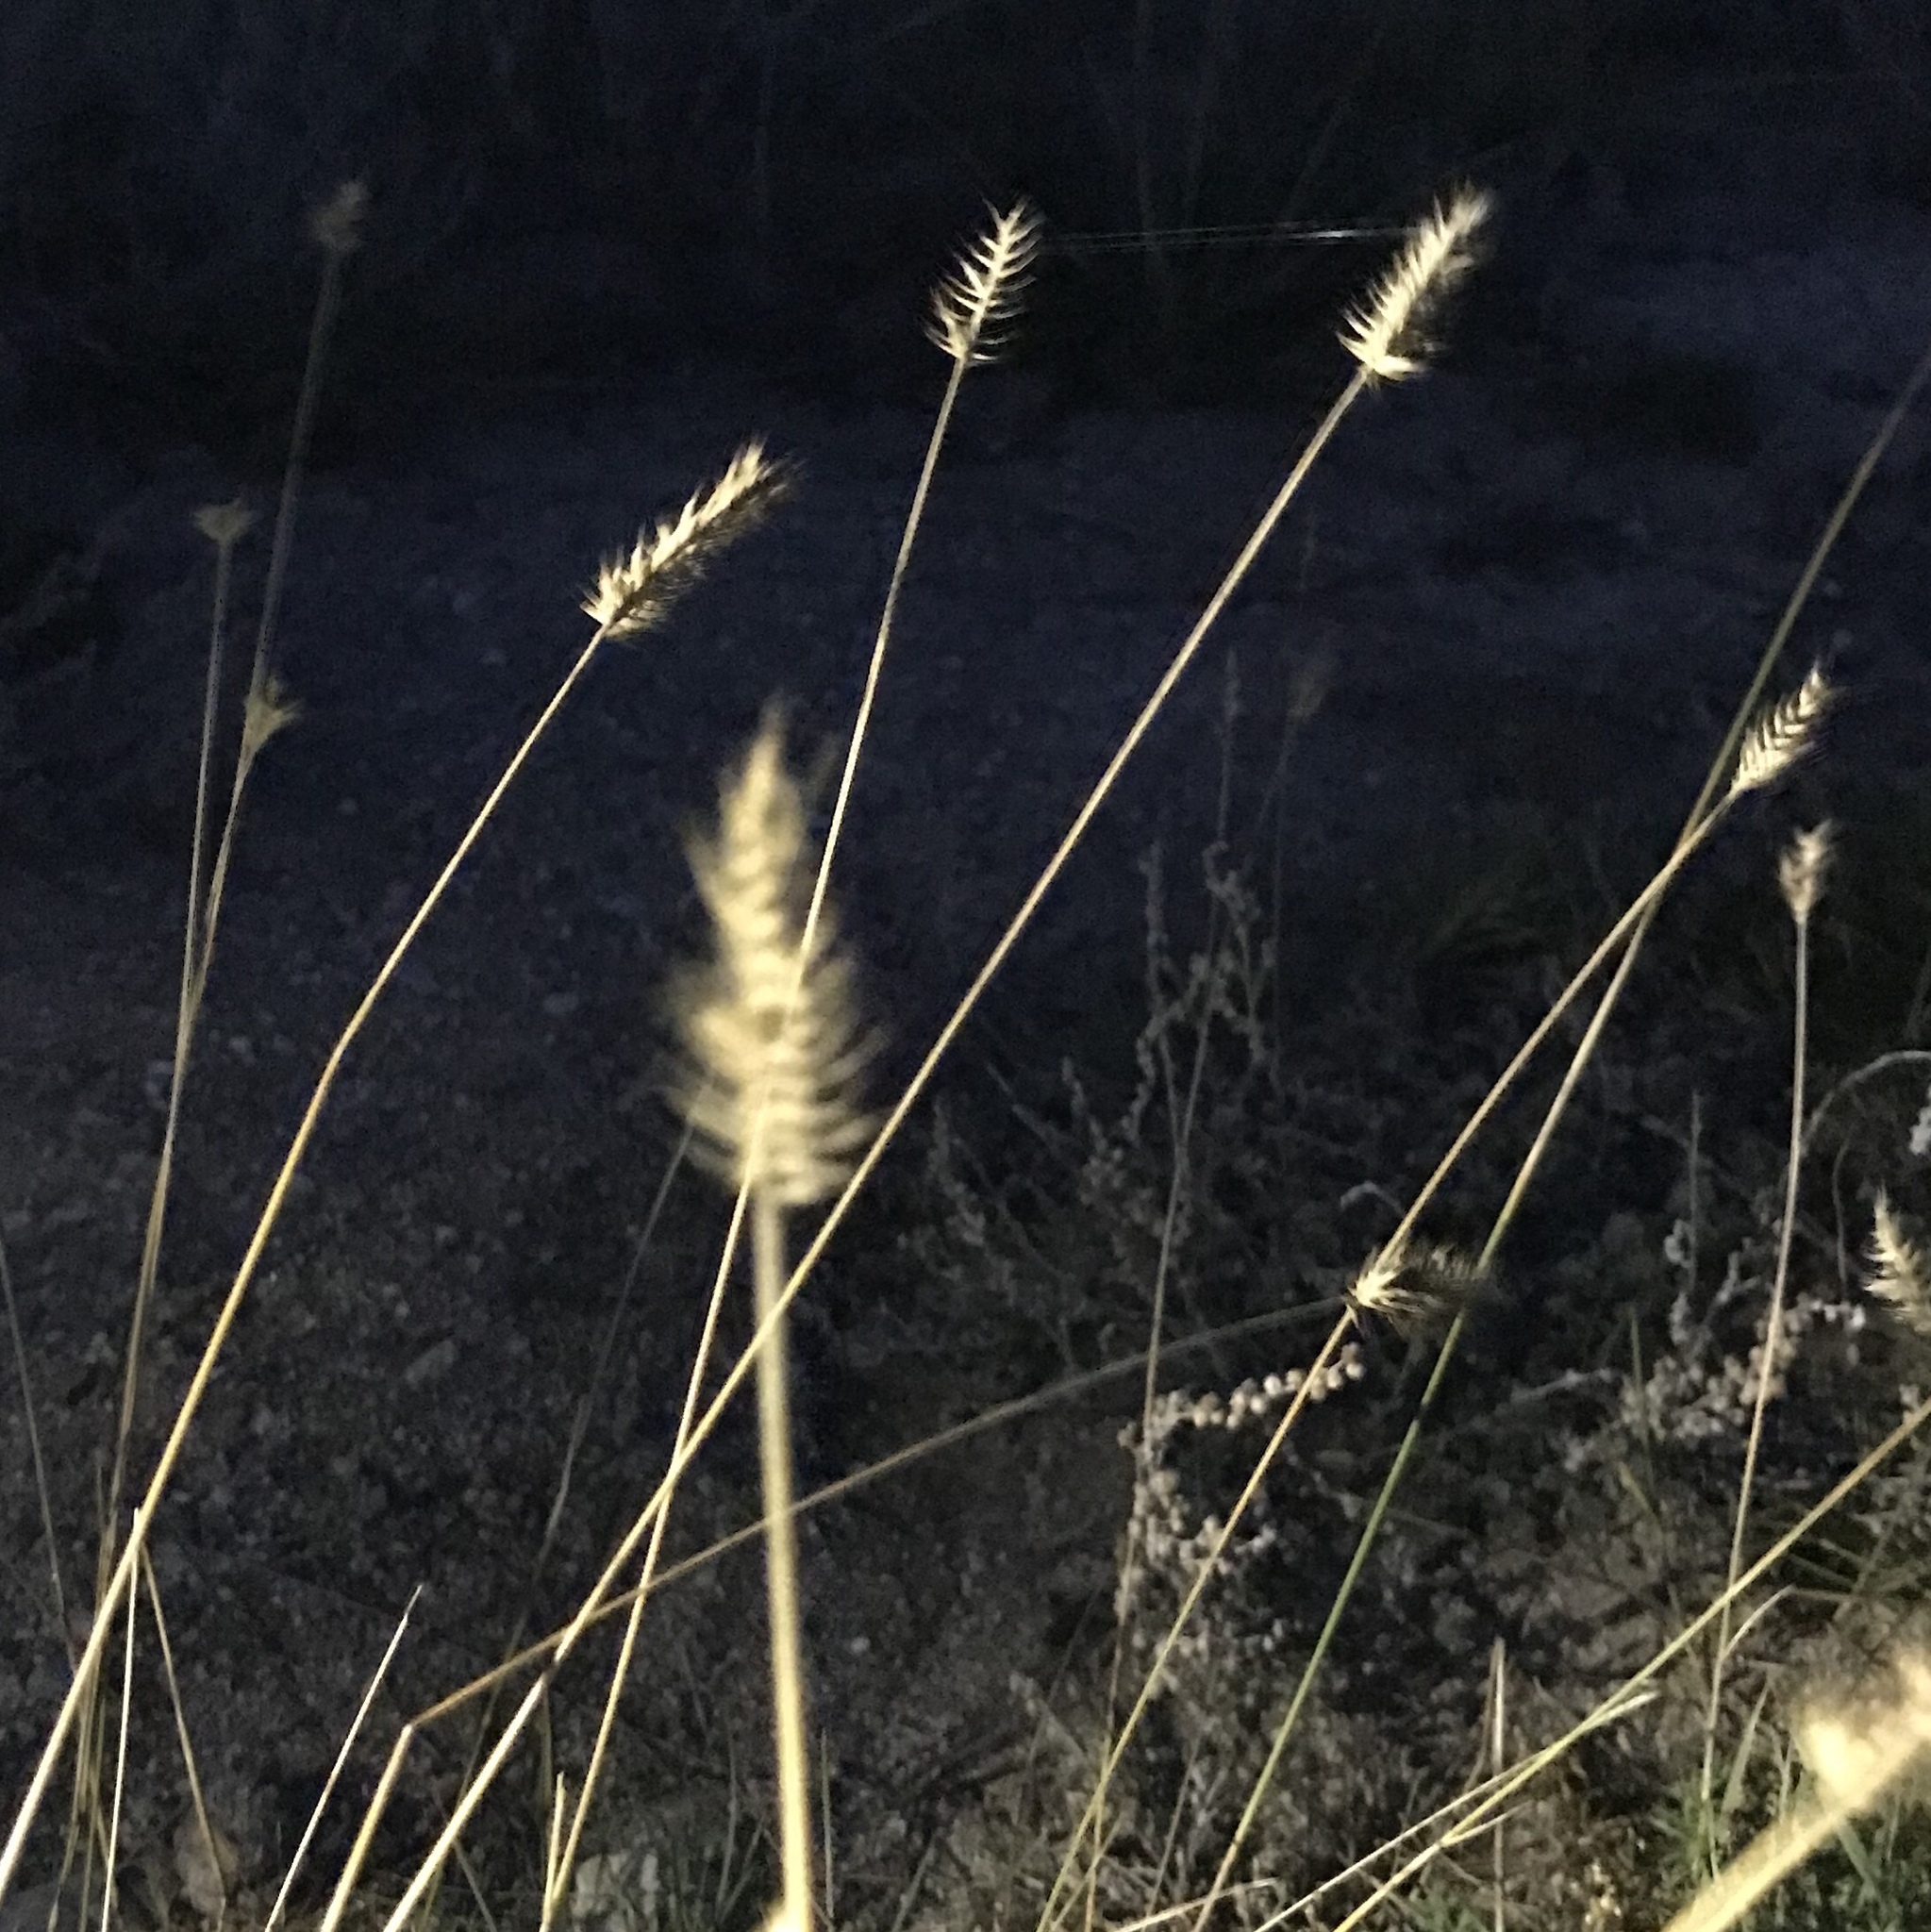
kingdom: Plantae
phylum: Tracheophyta
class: Liliopsida
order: Poales
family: Poaceae
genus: Agropyron
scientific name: Agropyron cristatum
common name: Crested wheatgrass
